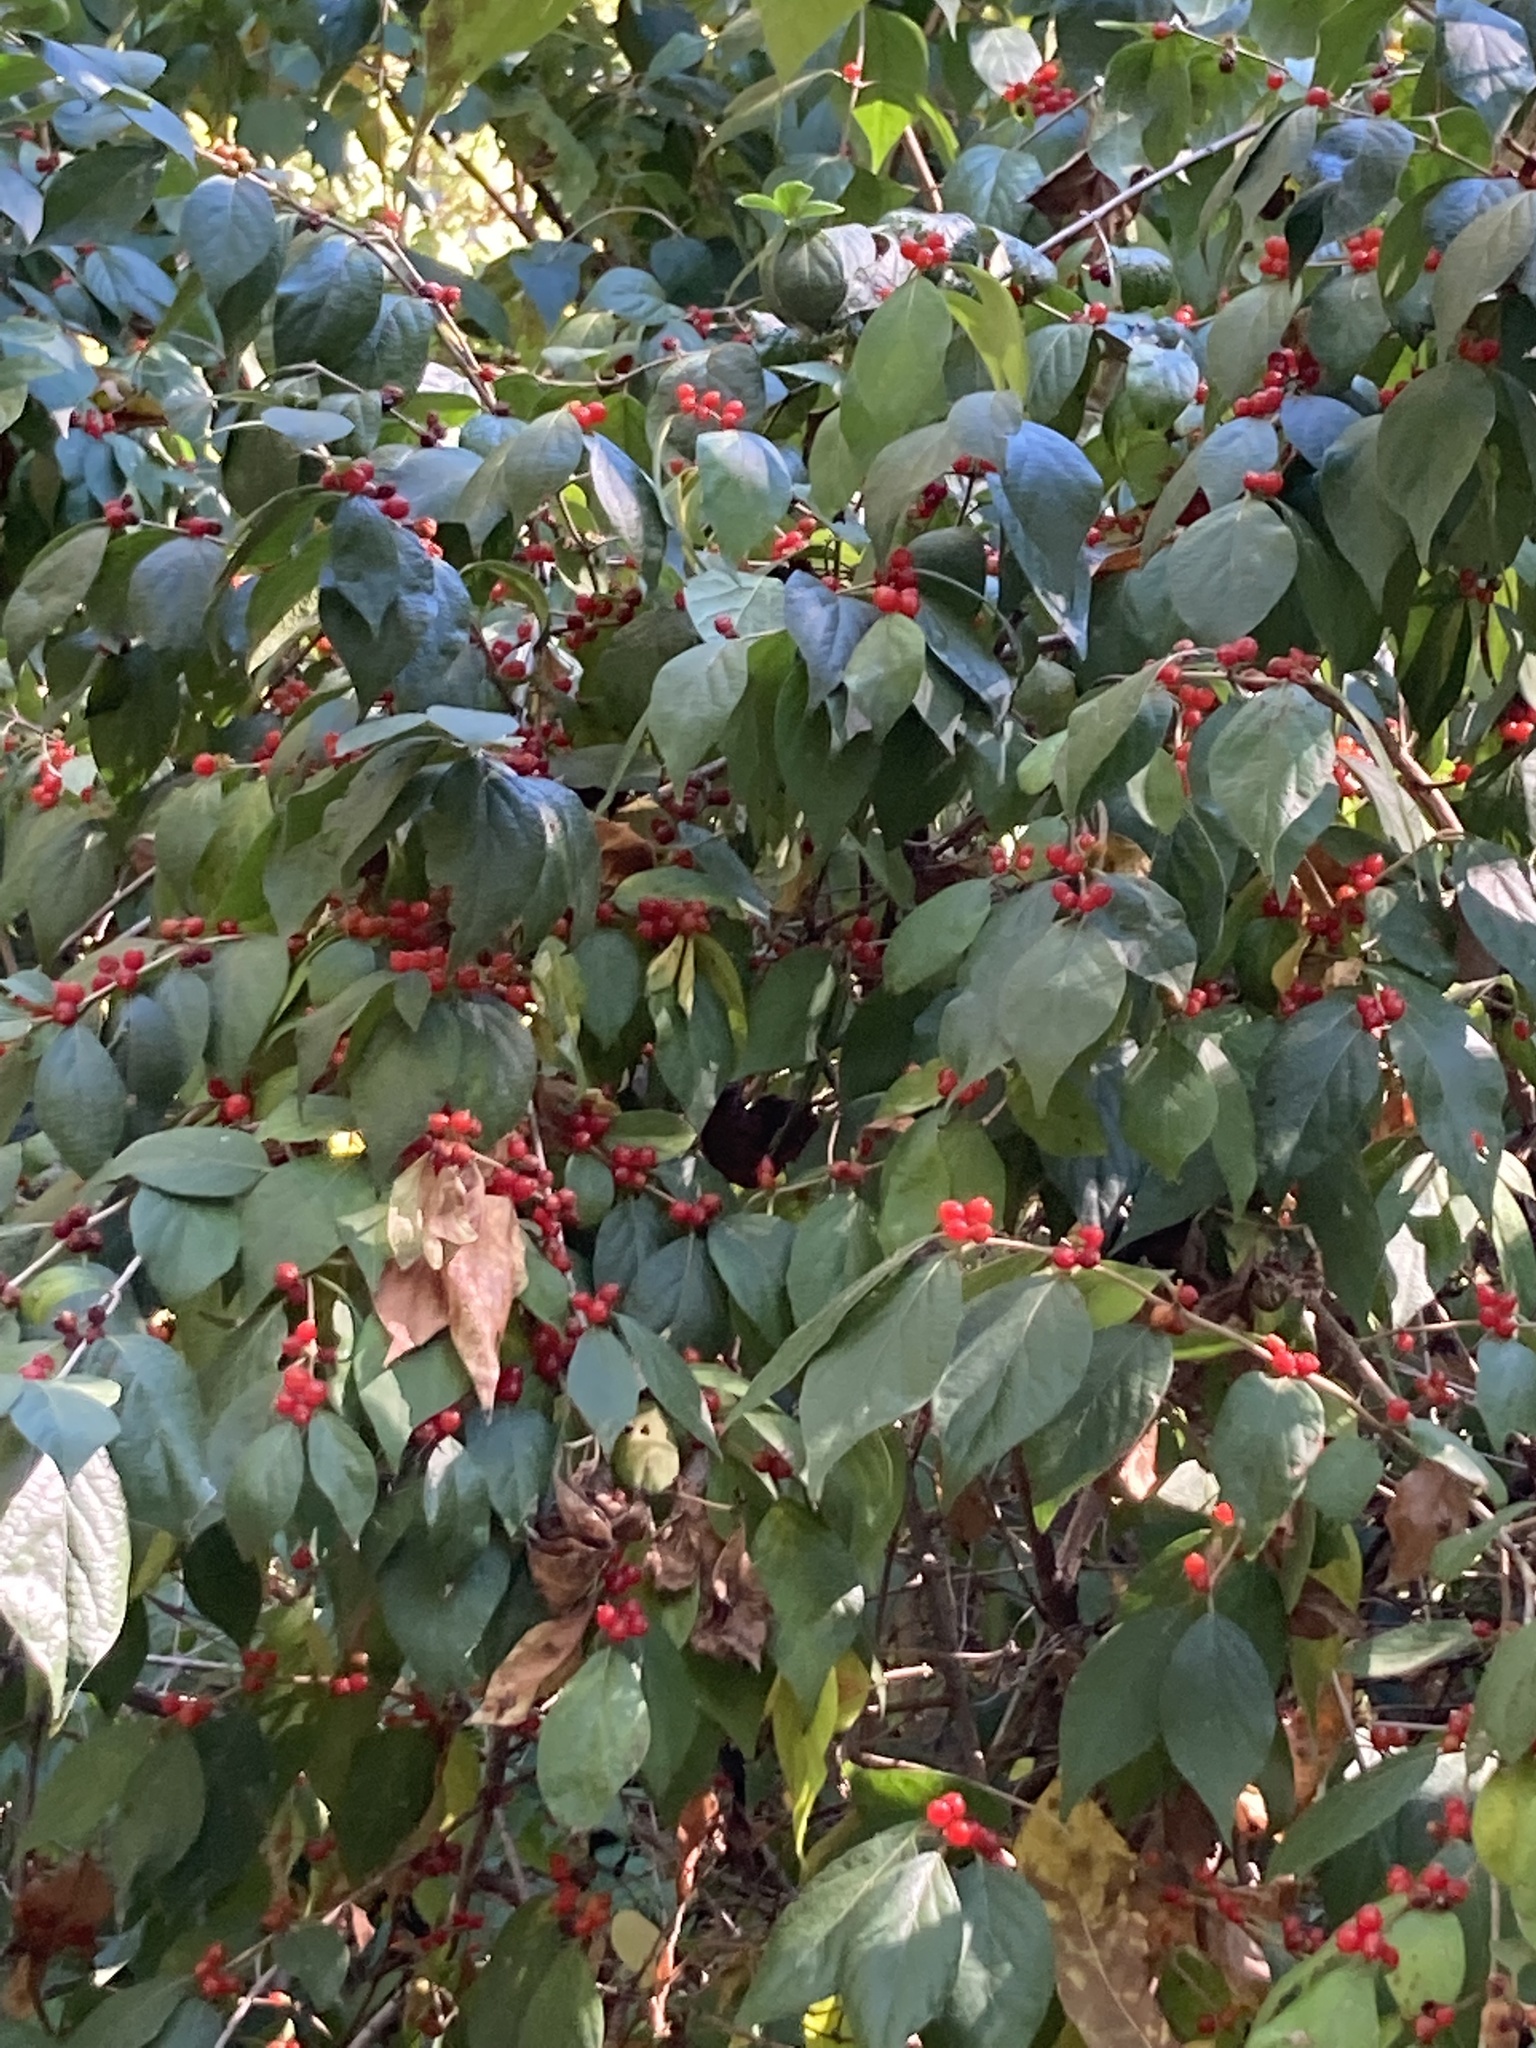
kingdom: Plantae
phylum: Tracheophyta
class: Magnoliopsida
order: Dipsacales
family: Caprifoliaceae
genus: Lonicera
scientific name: Lonicera maackii
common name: Amur honeysuckle
